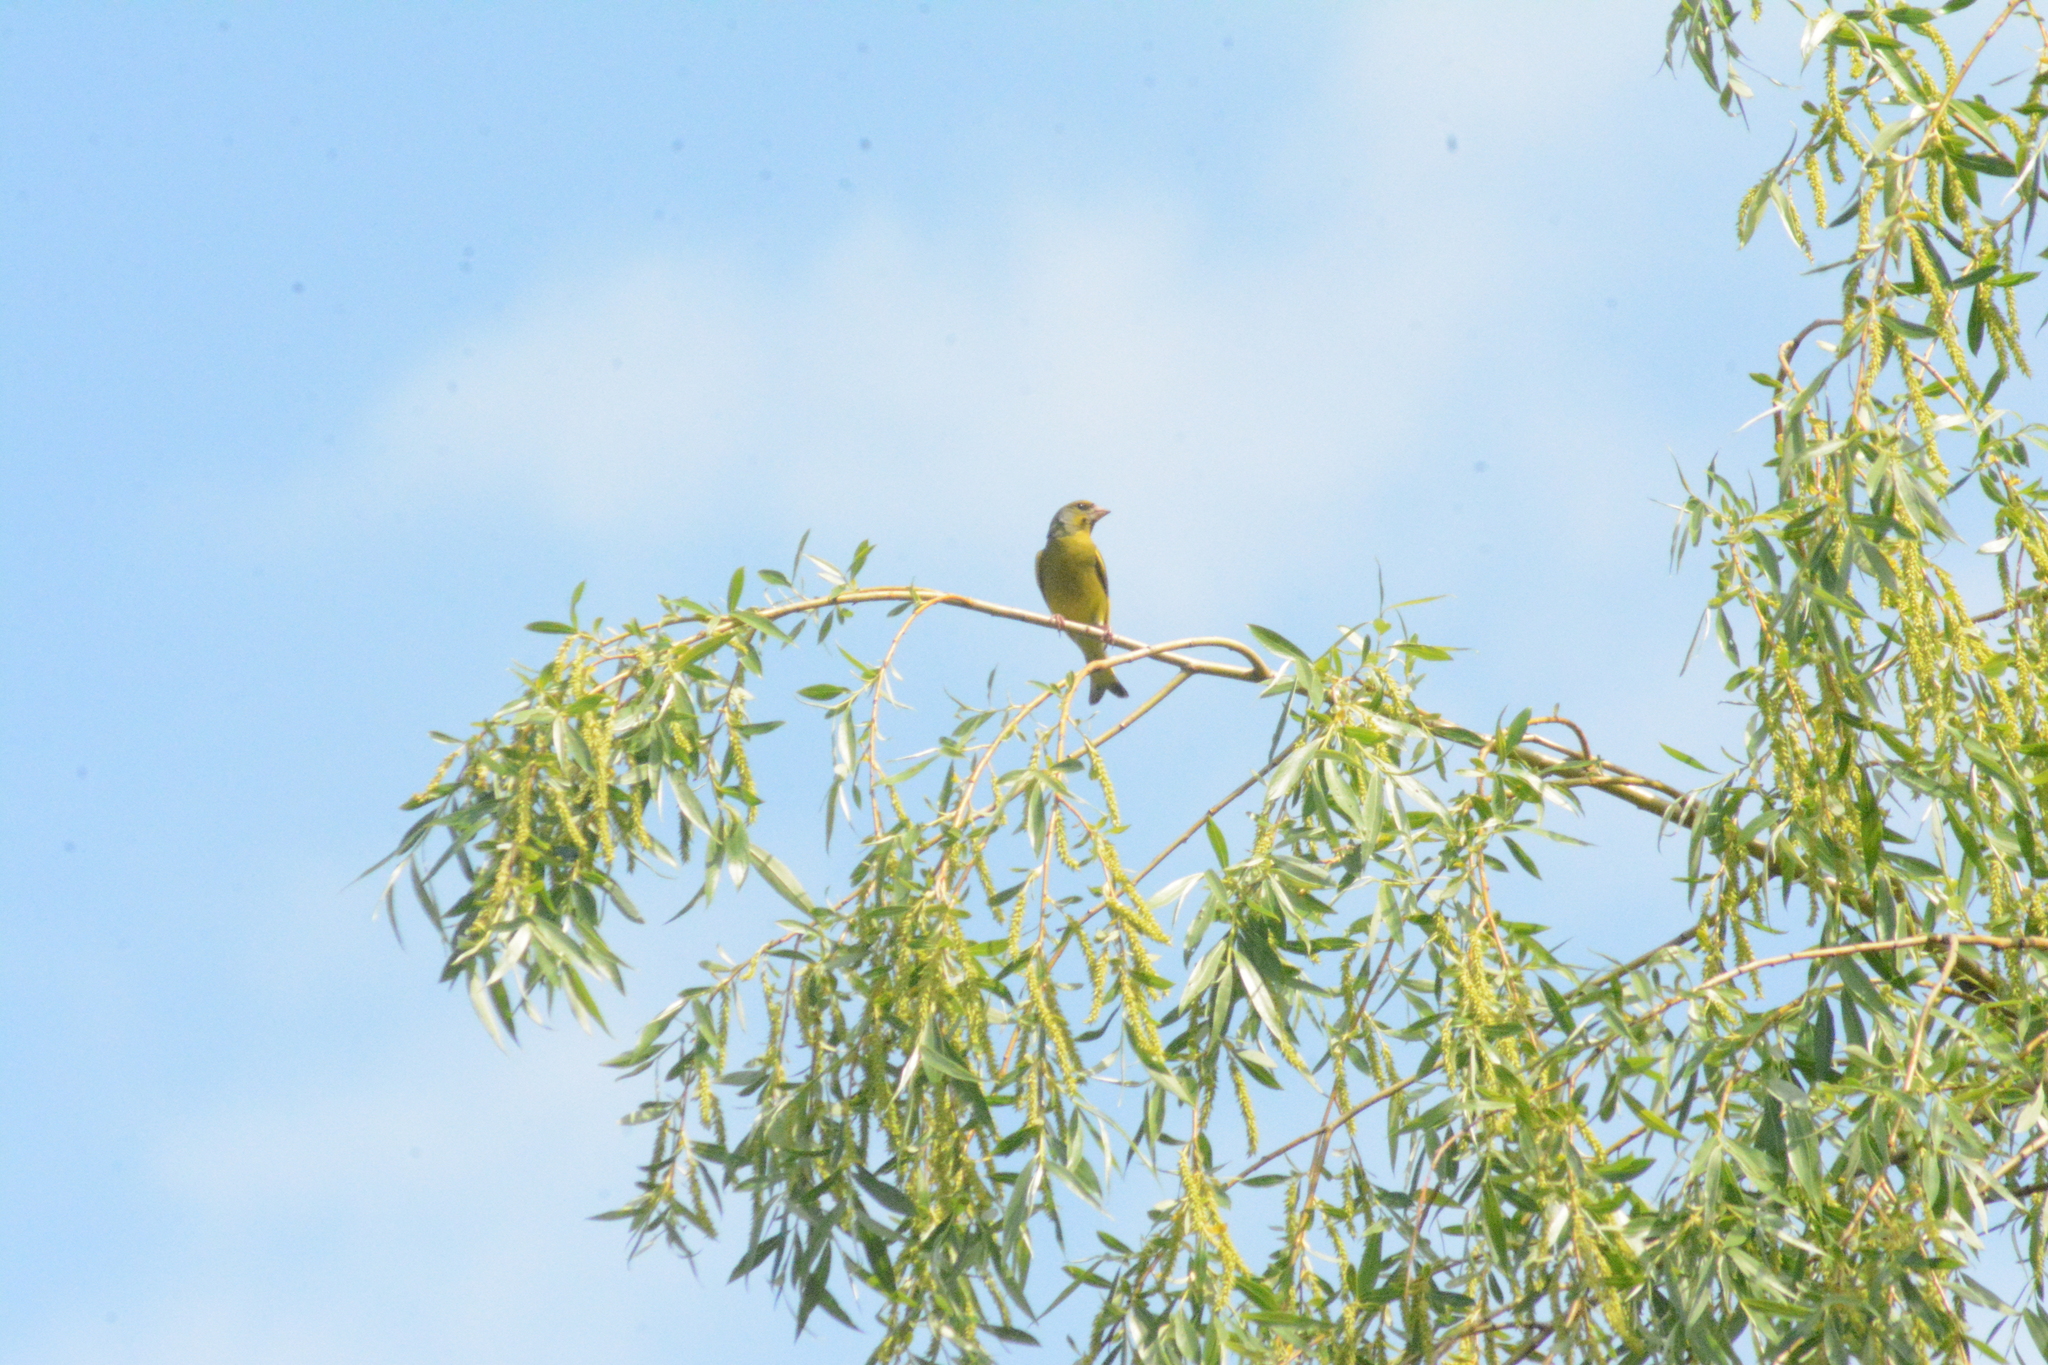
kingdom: Plantae
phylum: Tracheophyta
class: Liliopsida
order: Poales
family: Poaceae
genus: Chloris
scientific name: Chloris chloris
